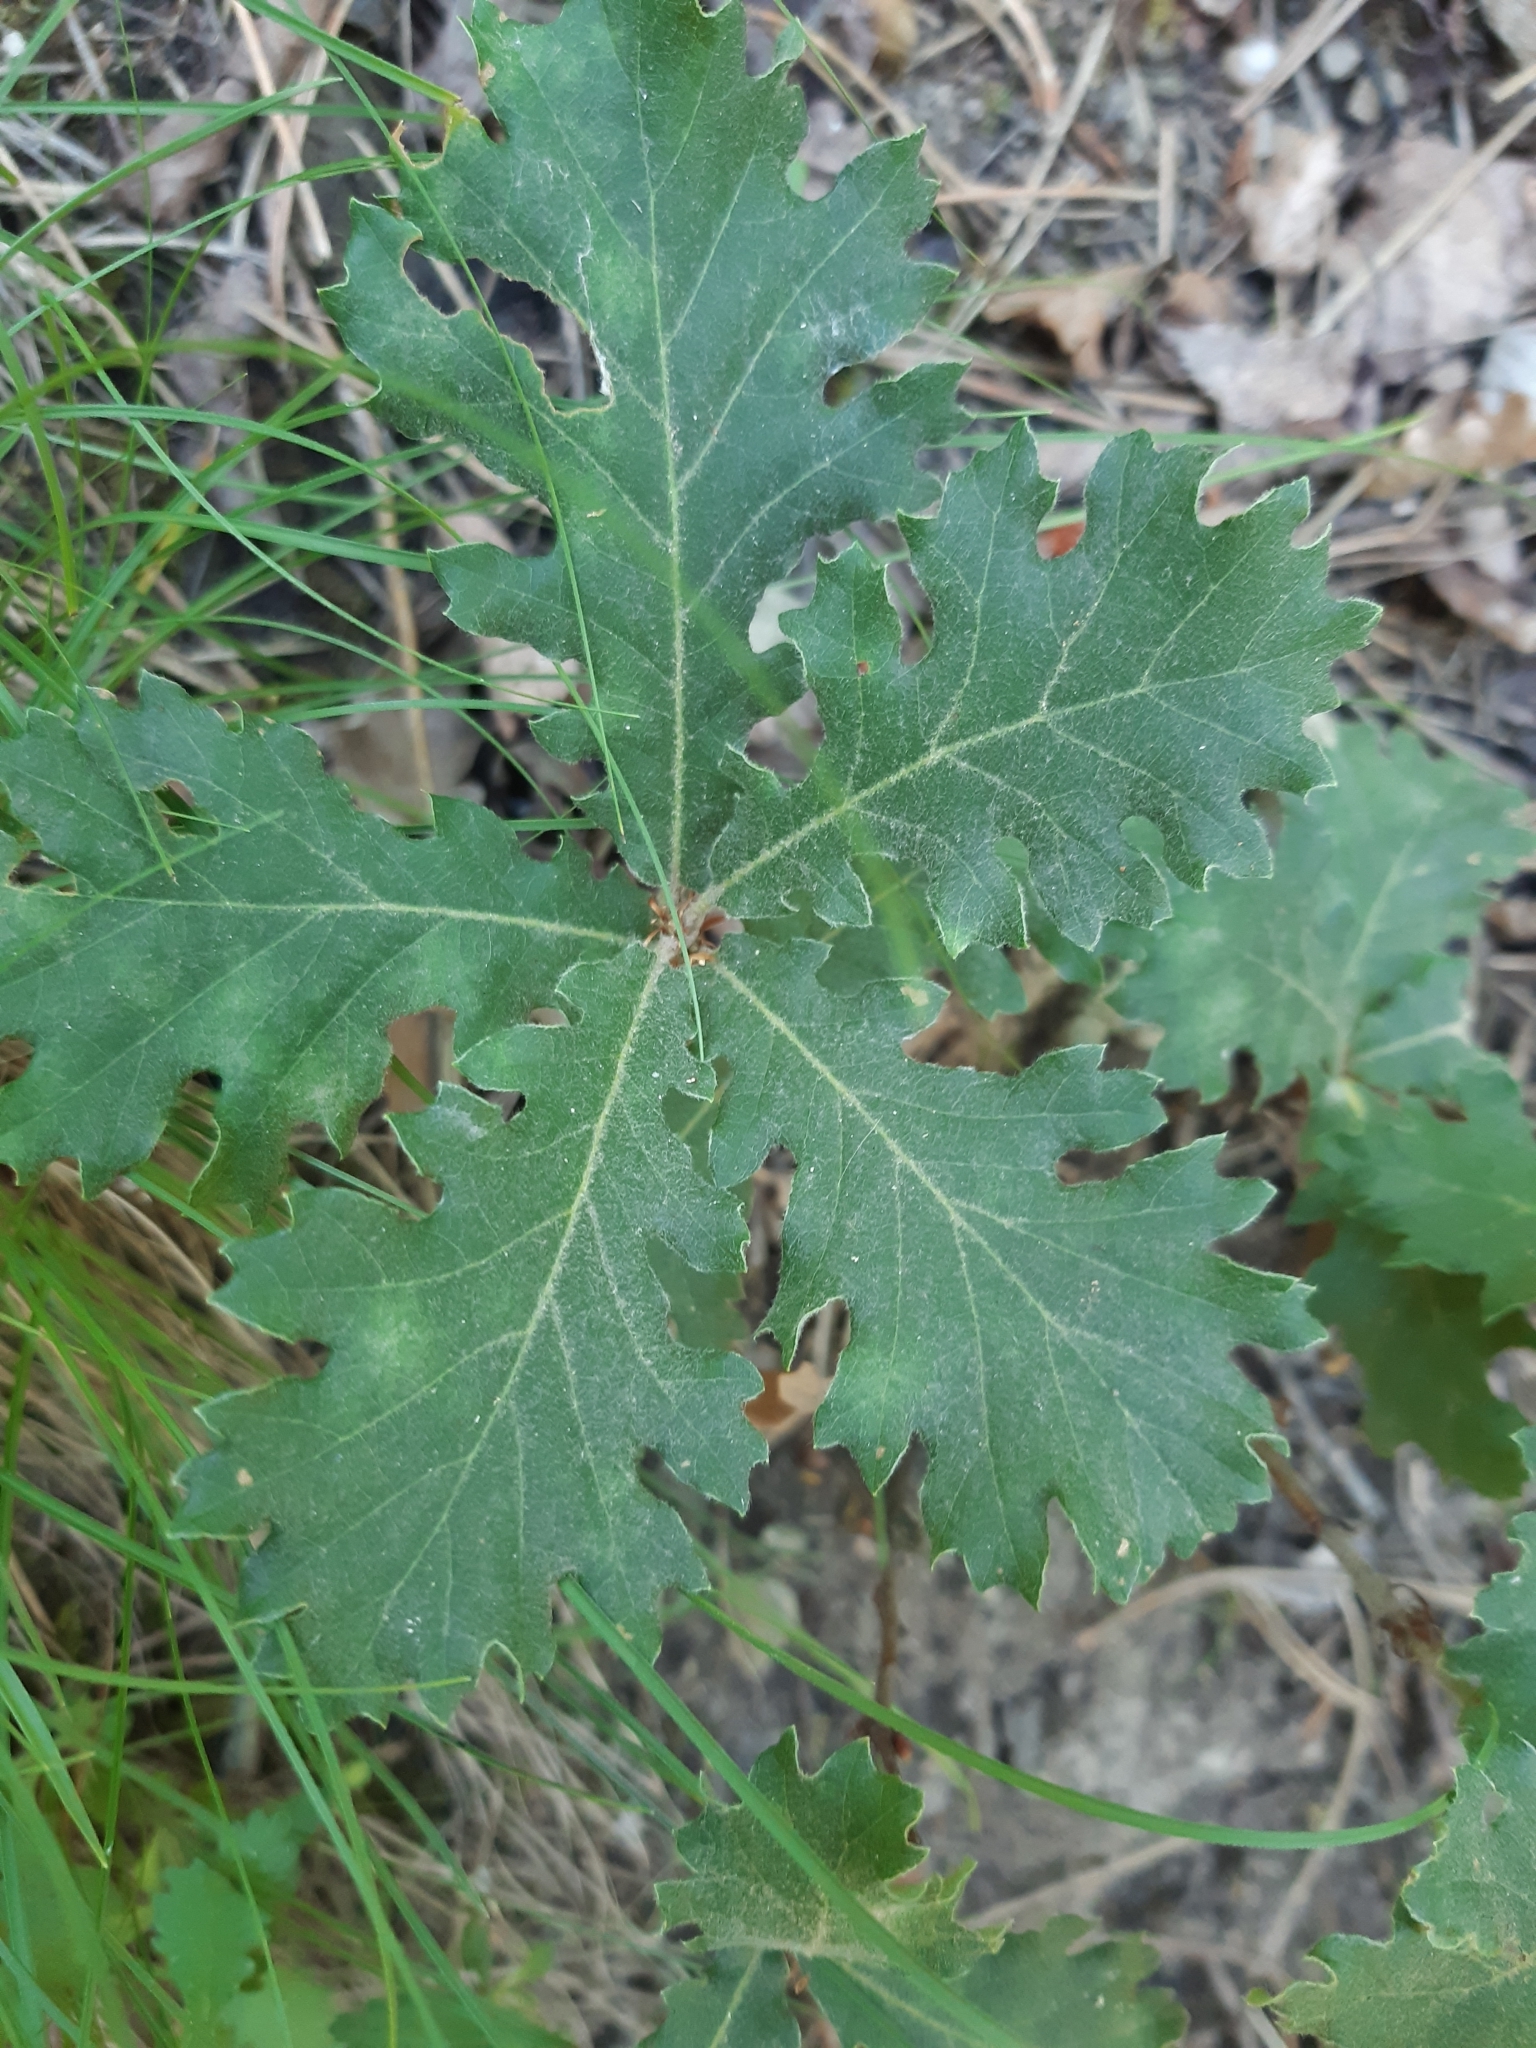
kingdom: Plantae
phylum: Tracheophyta
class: Magnoliopsida
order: Fagales
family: Fagaceae
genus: Quercus
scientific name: Quercus pubescens
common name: Downy oak
